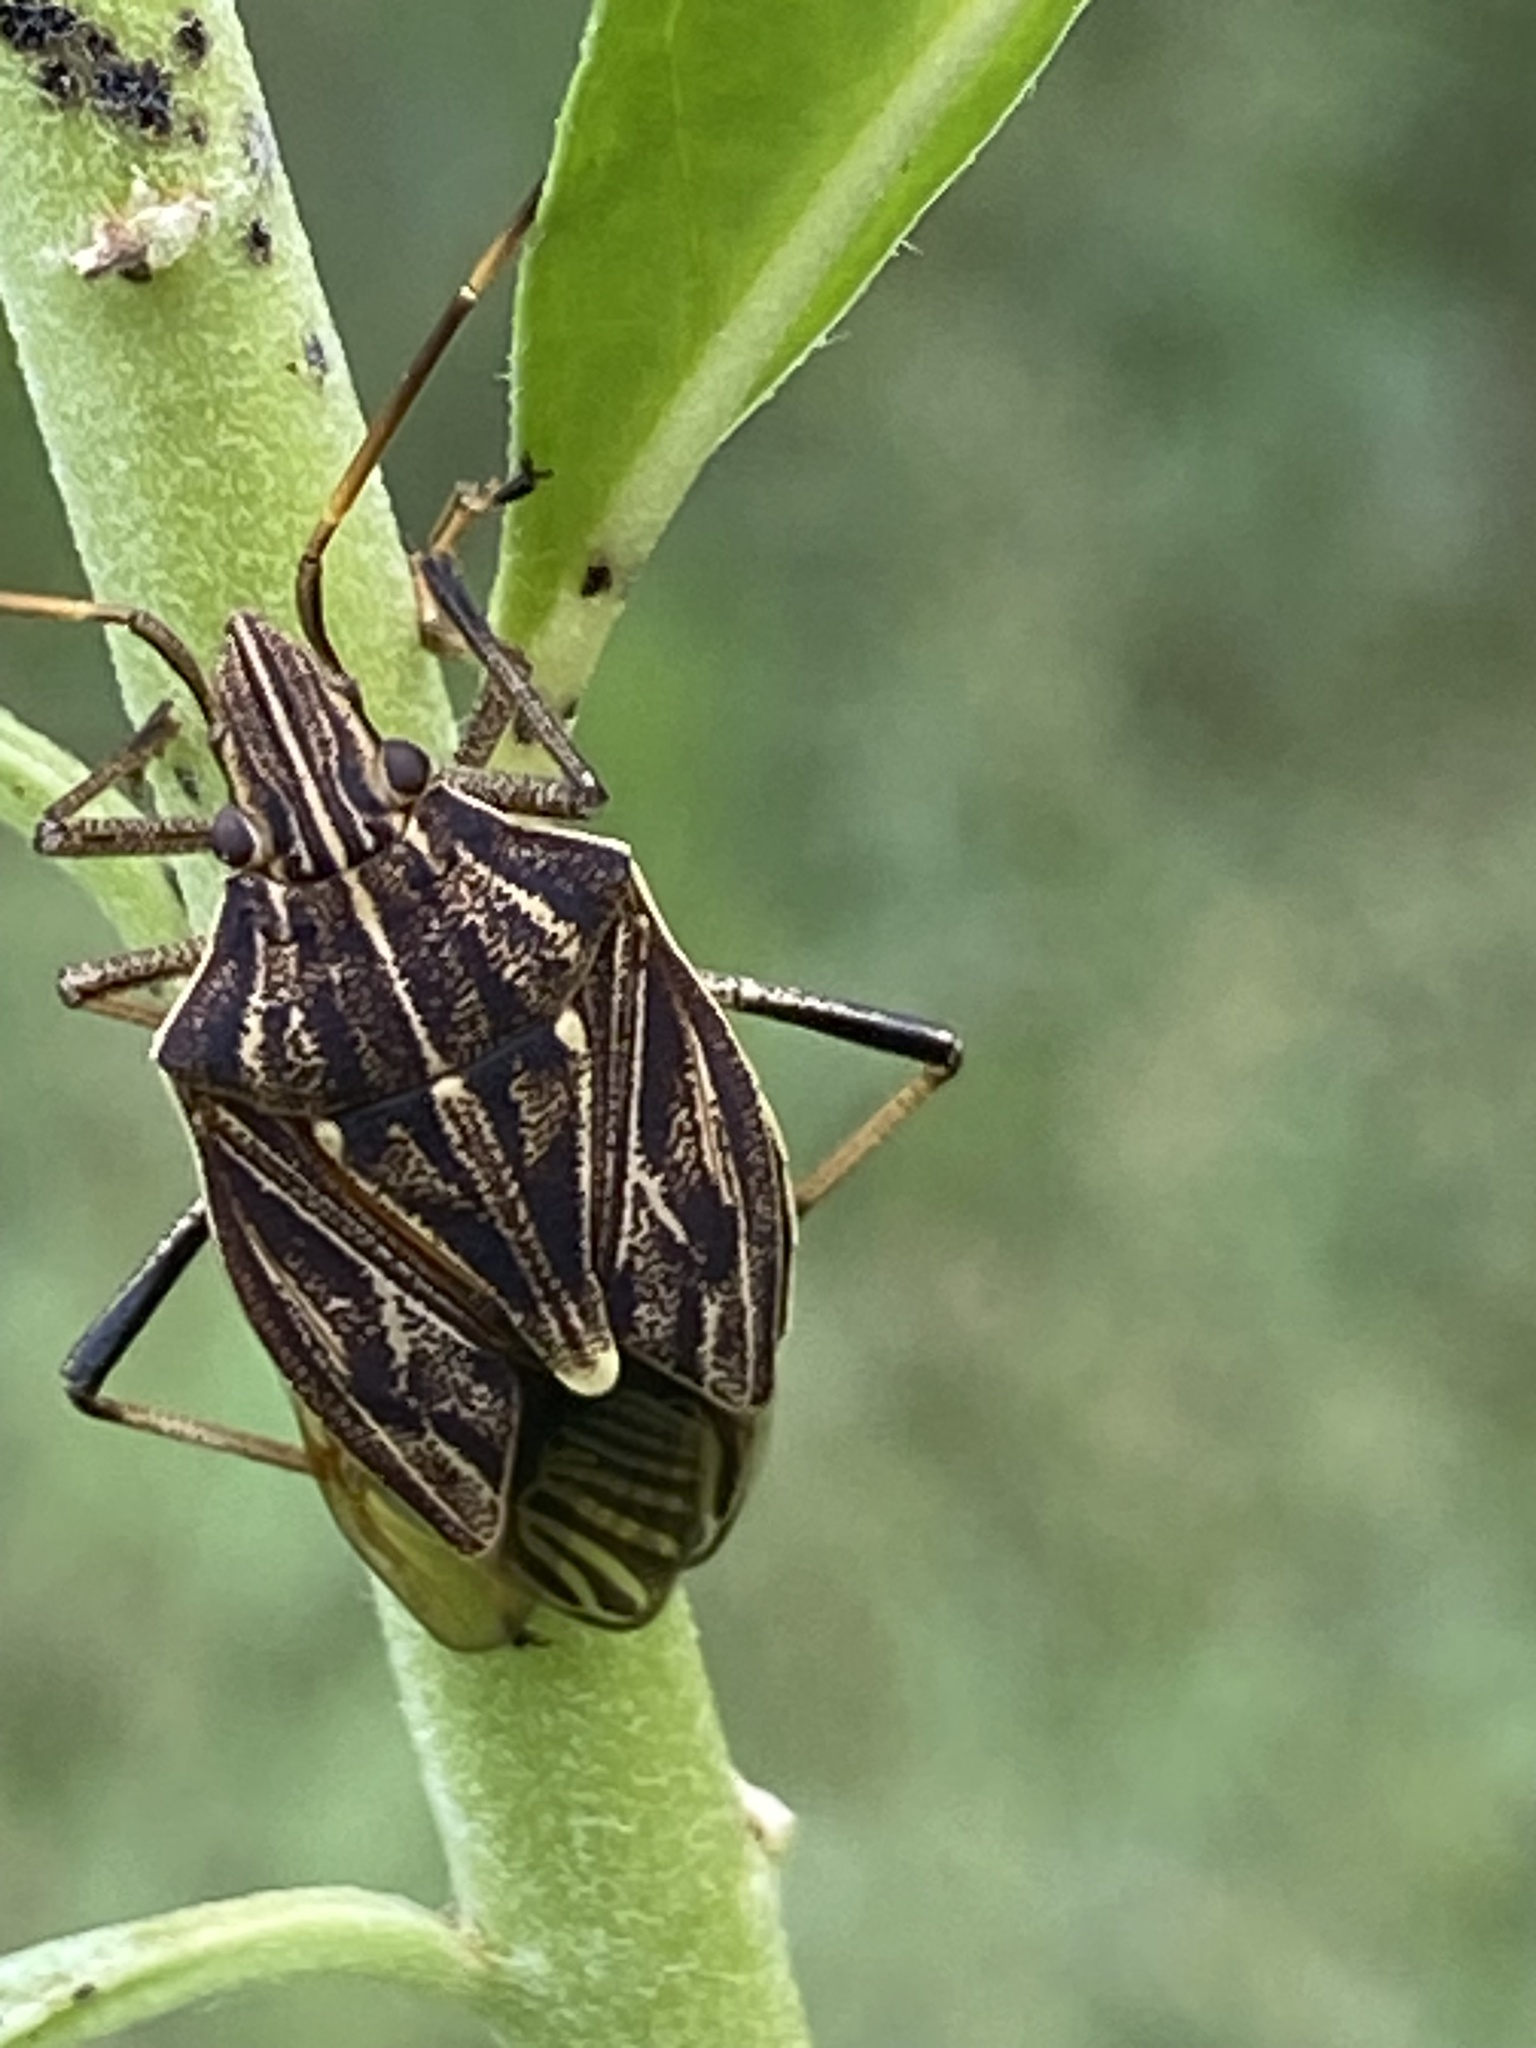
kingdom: Animalia
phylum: Arthropoda
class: Insecta
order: Hemiptera
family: Pentatomidae
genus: Poecilometis
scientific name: Poecilometis
